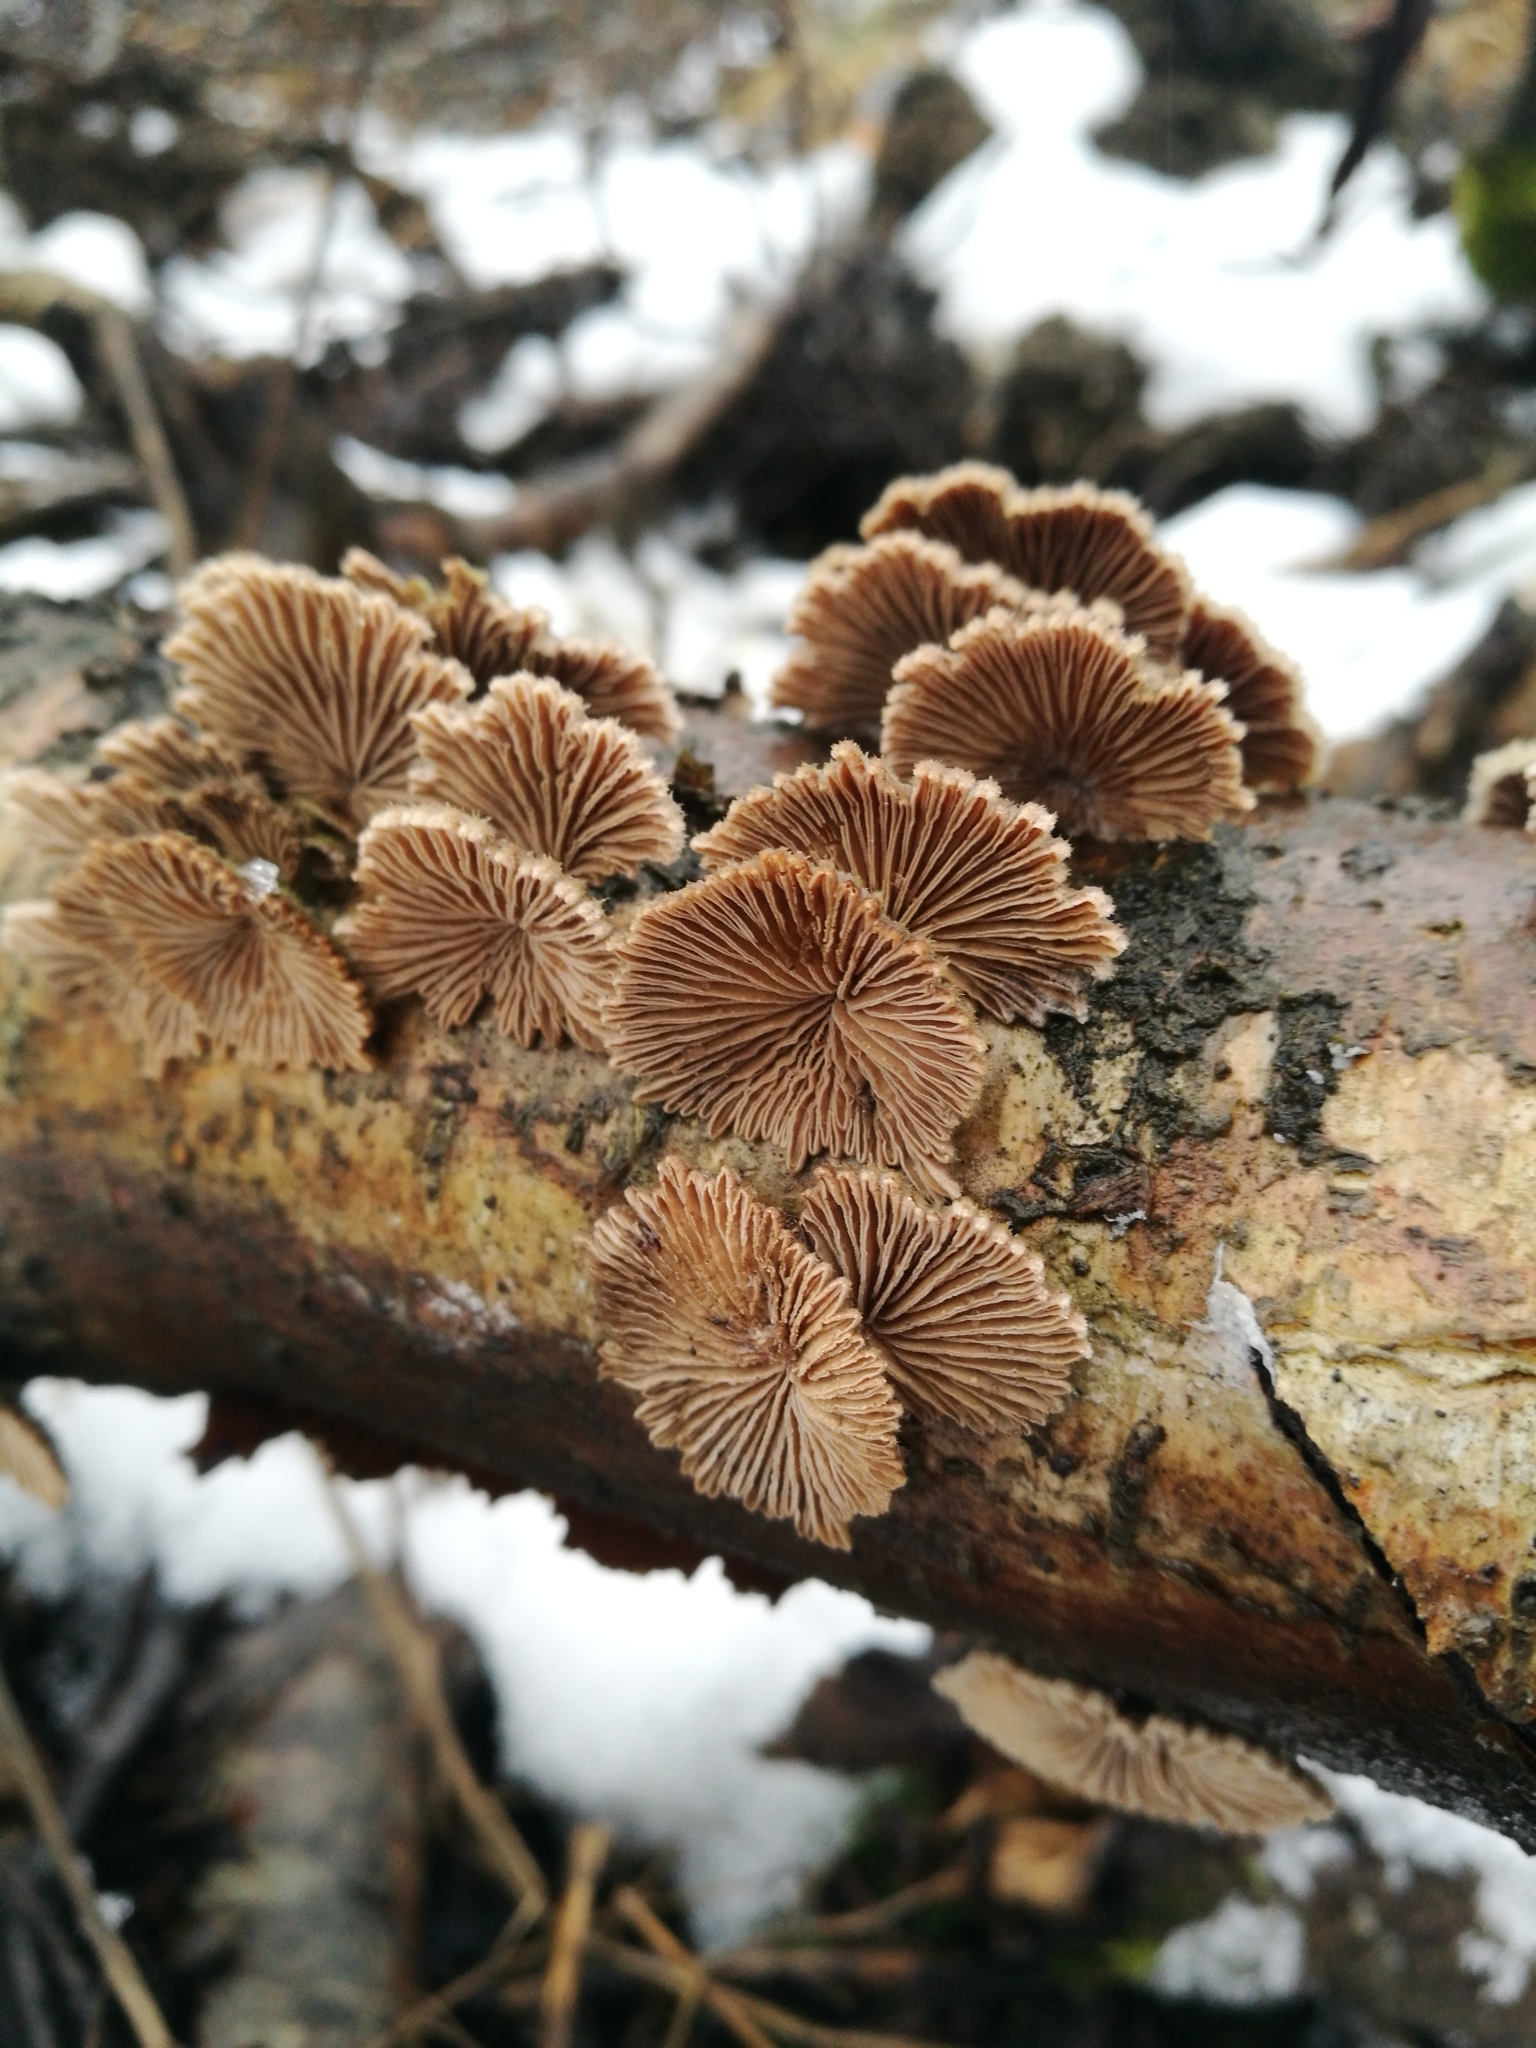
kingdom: Fungi
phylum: Basidiomycota
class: Agaricomycetes
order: Agaricales
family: Schizophyllaceae
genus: Schizophyllum
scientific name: Schizophyllum commune
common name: Common porecrust
